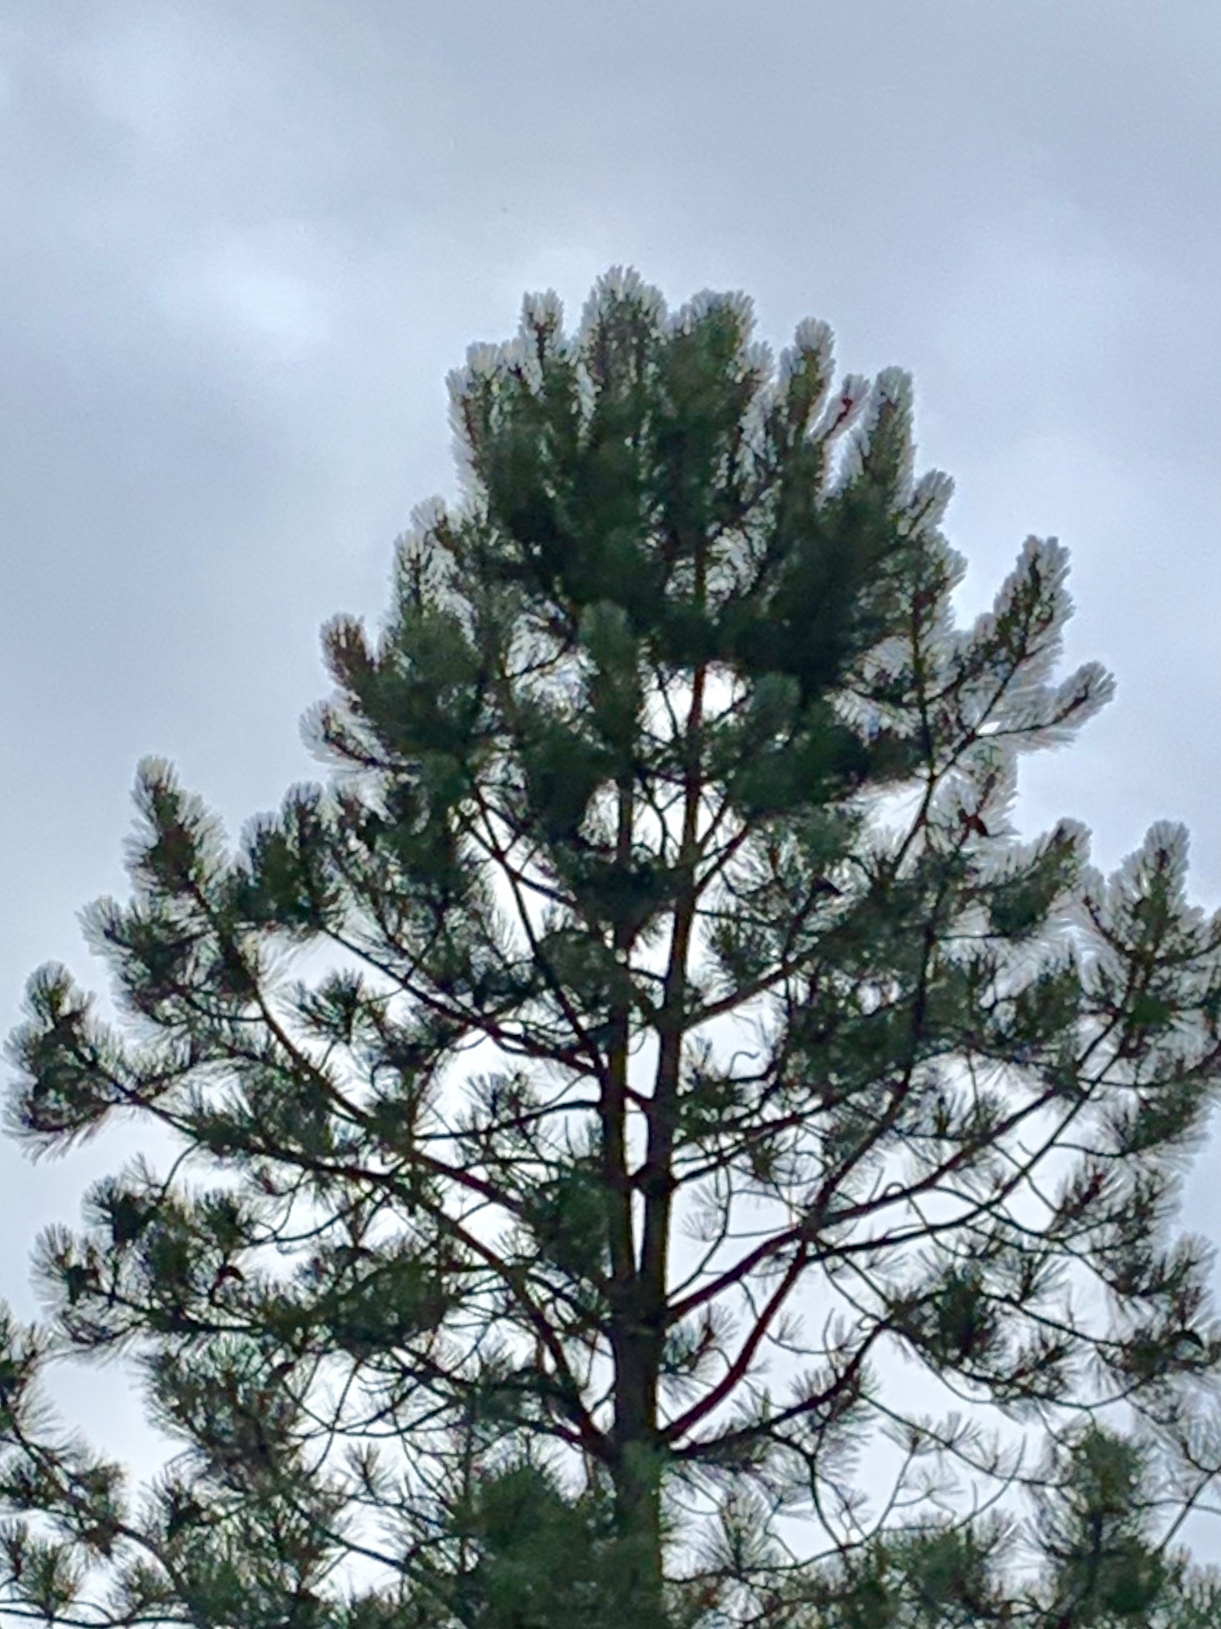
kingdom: Plantae
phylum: Tracheophyta
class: Pinopsida
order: Pinales
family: Pinaceae
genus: Pinus
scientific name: Pinus ponderosa
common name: Western yellow-pine
